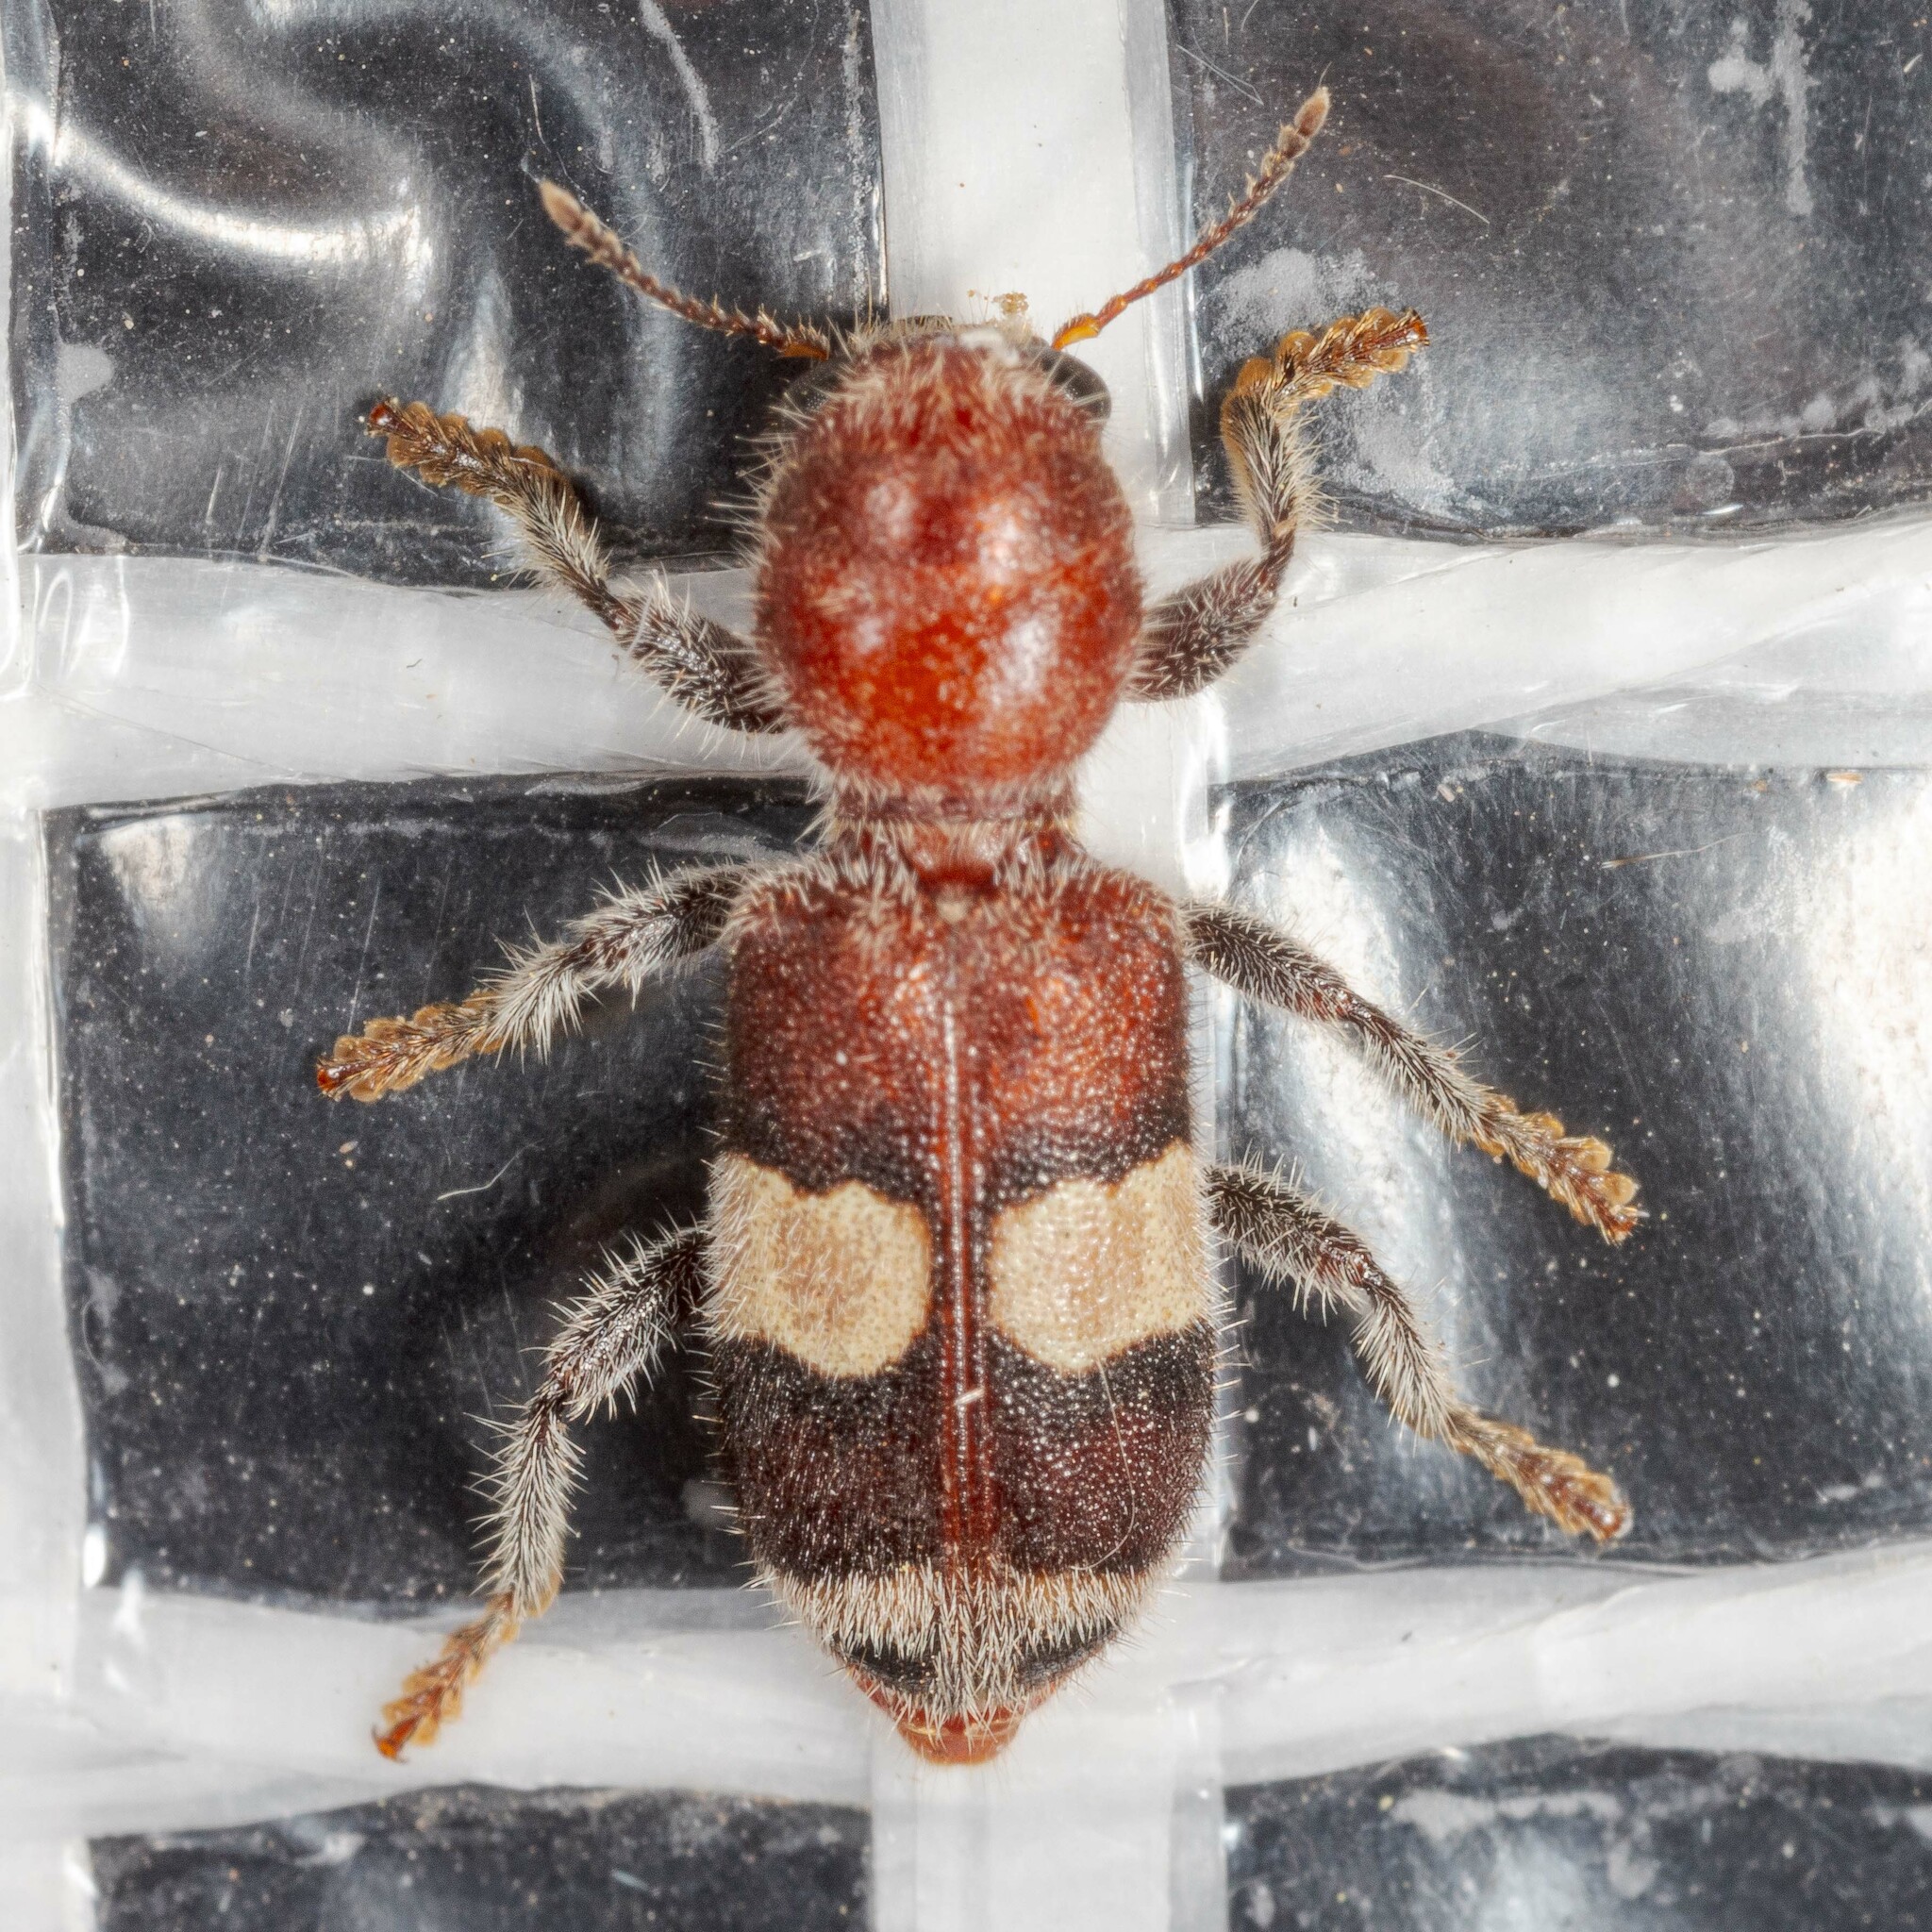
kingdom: Animalia
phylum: Arthropoda
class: Insecta
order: Coleoptera
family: Cleridae
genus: Enoclerus
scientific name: Enoclerus quadrisignatus
